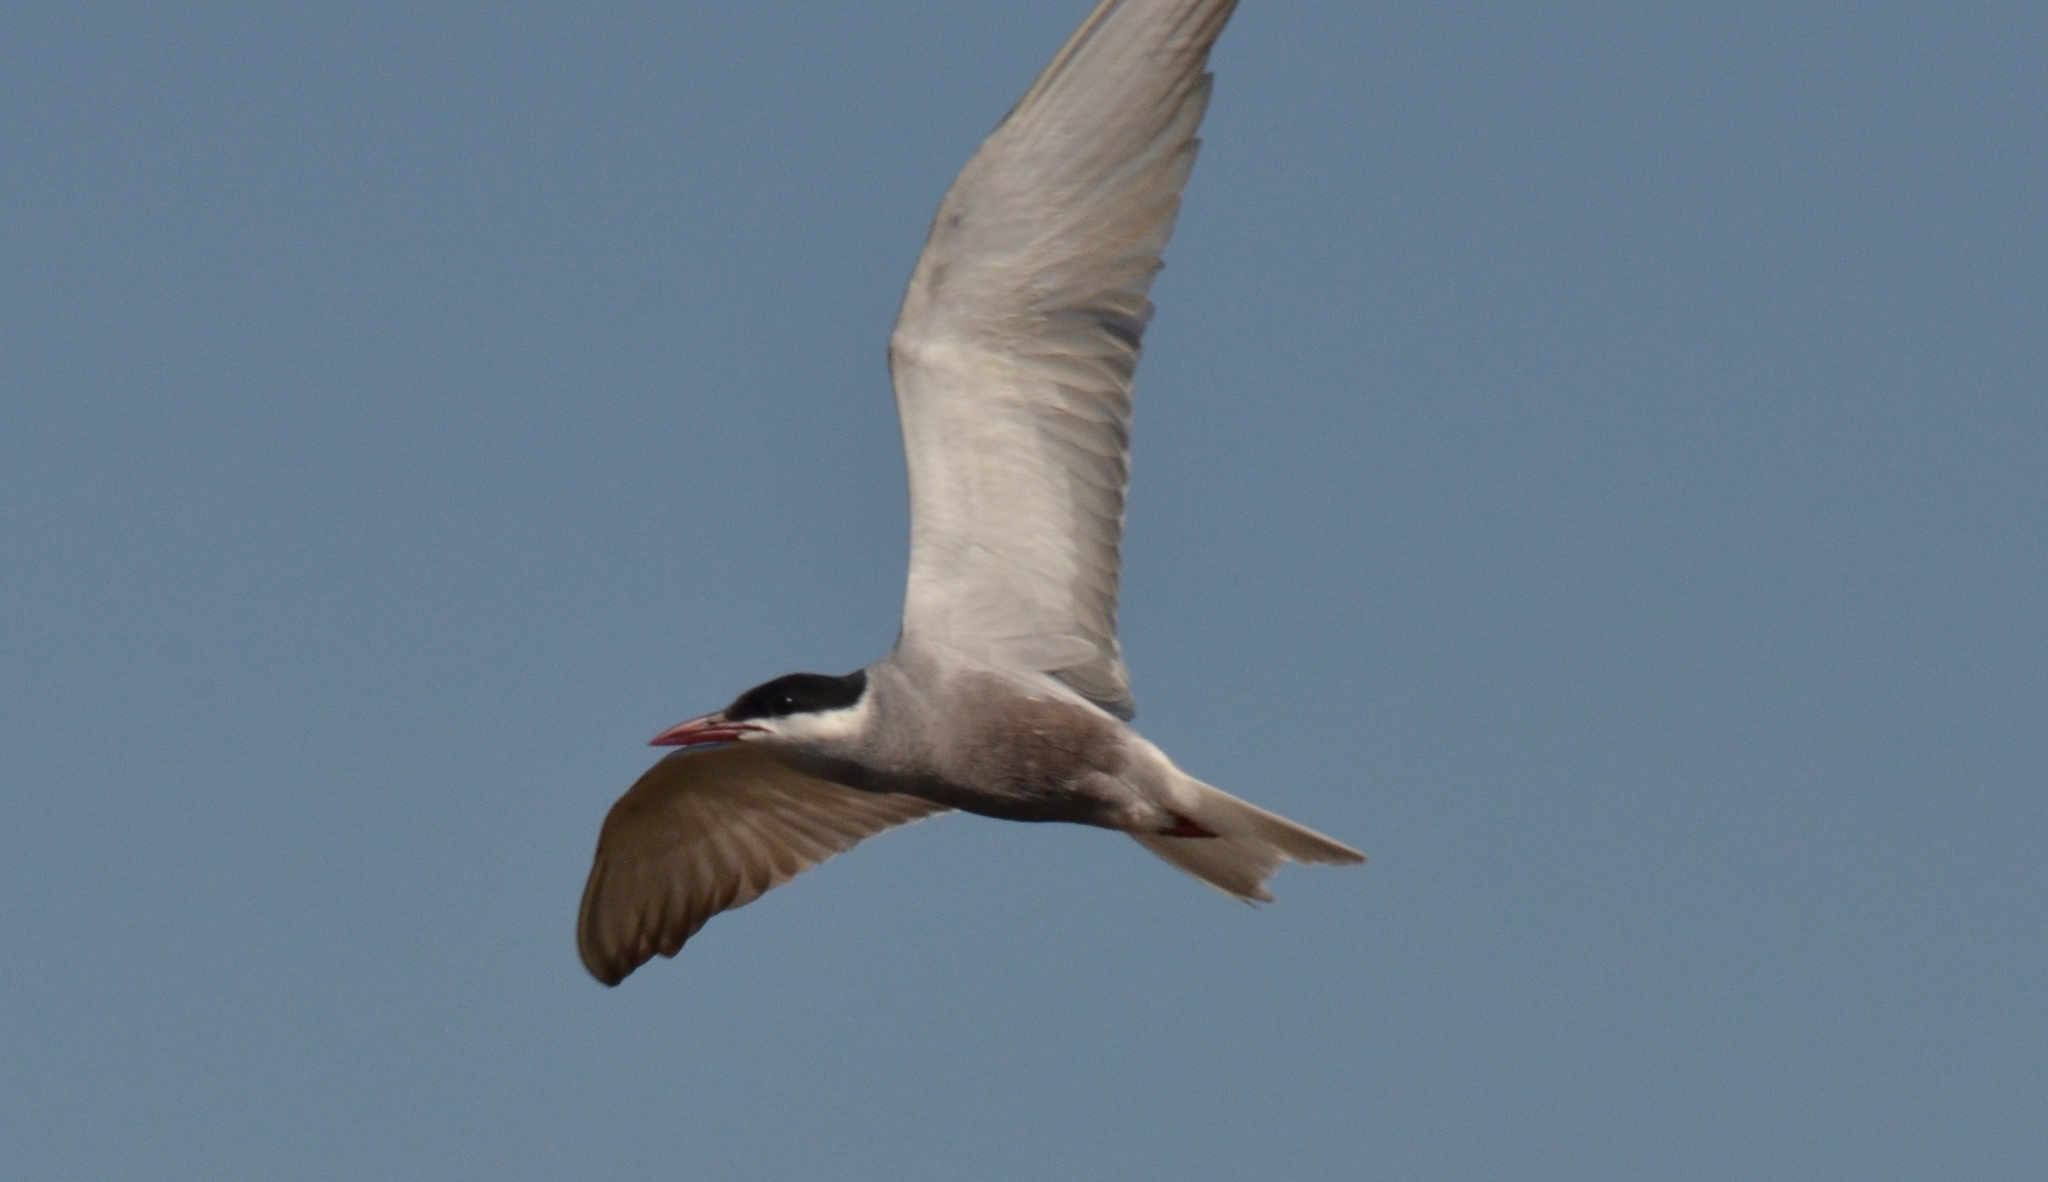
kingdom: Animalia
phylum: Chordata
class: Aves
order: Charadriiformes
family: Laridae
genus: Chlidonias
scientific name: Chlidonias hybrida
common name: Whiskered tern
